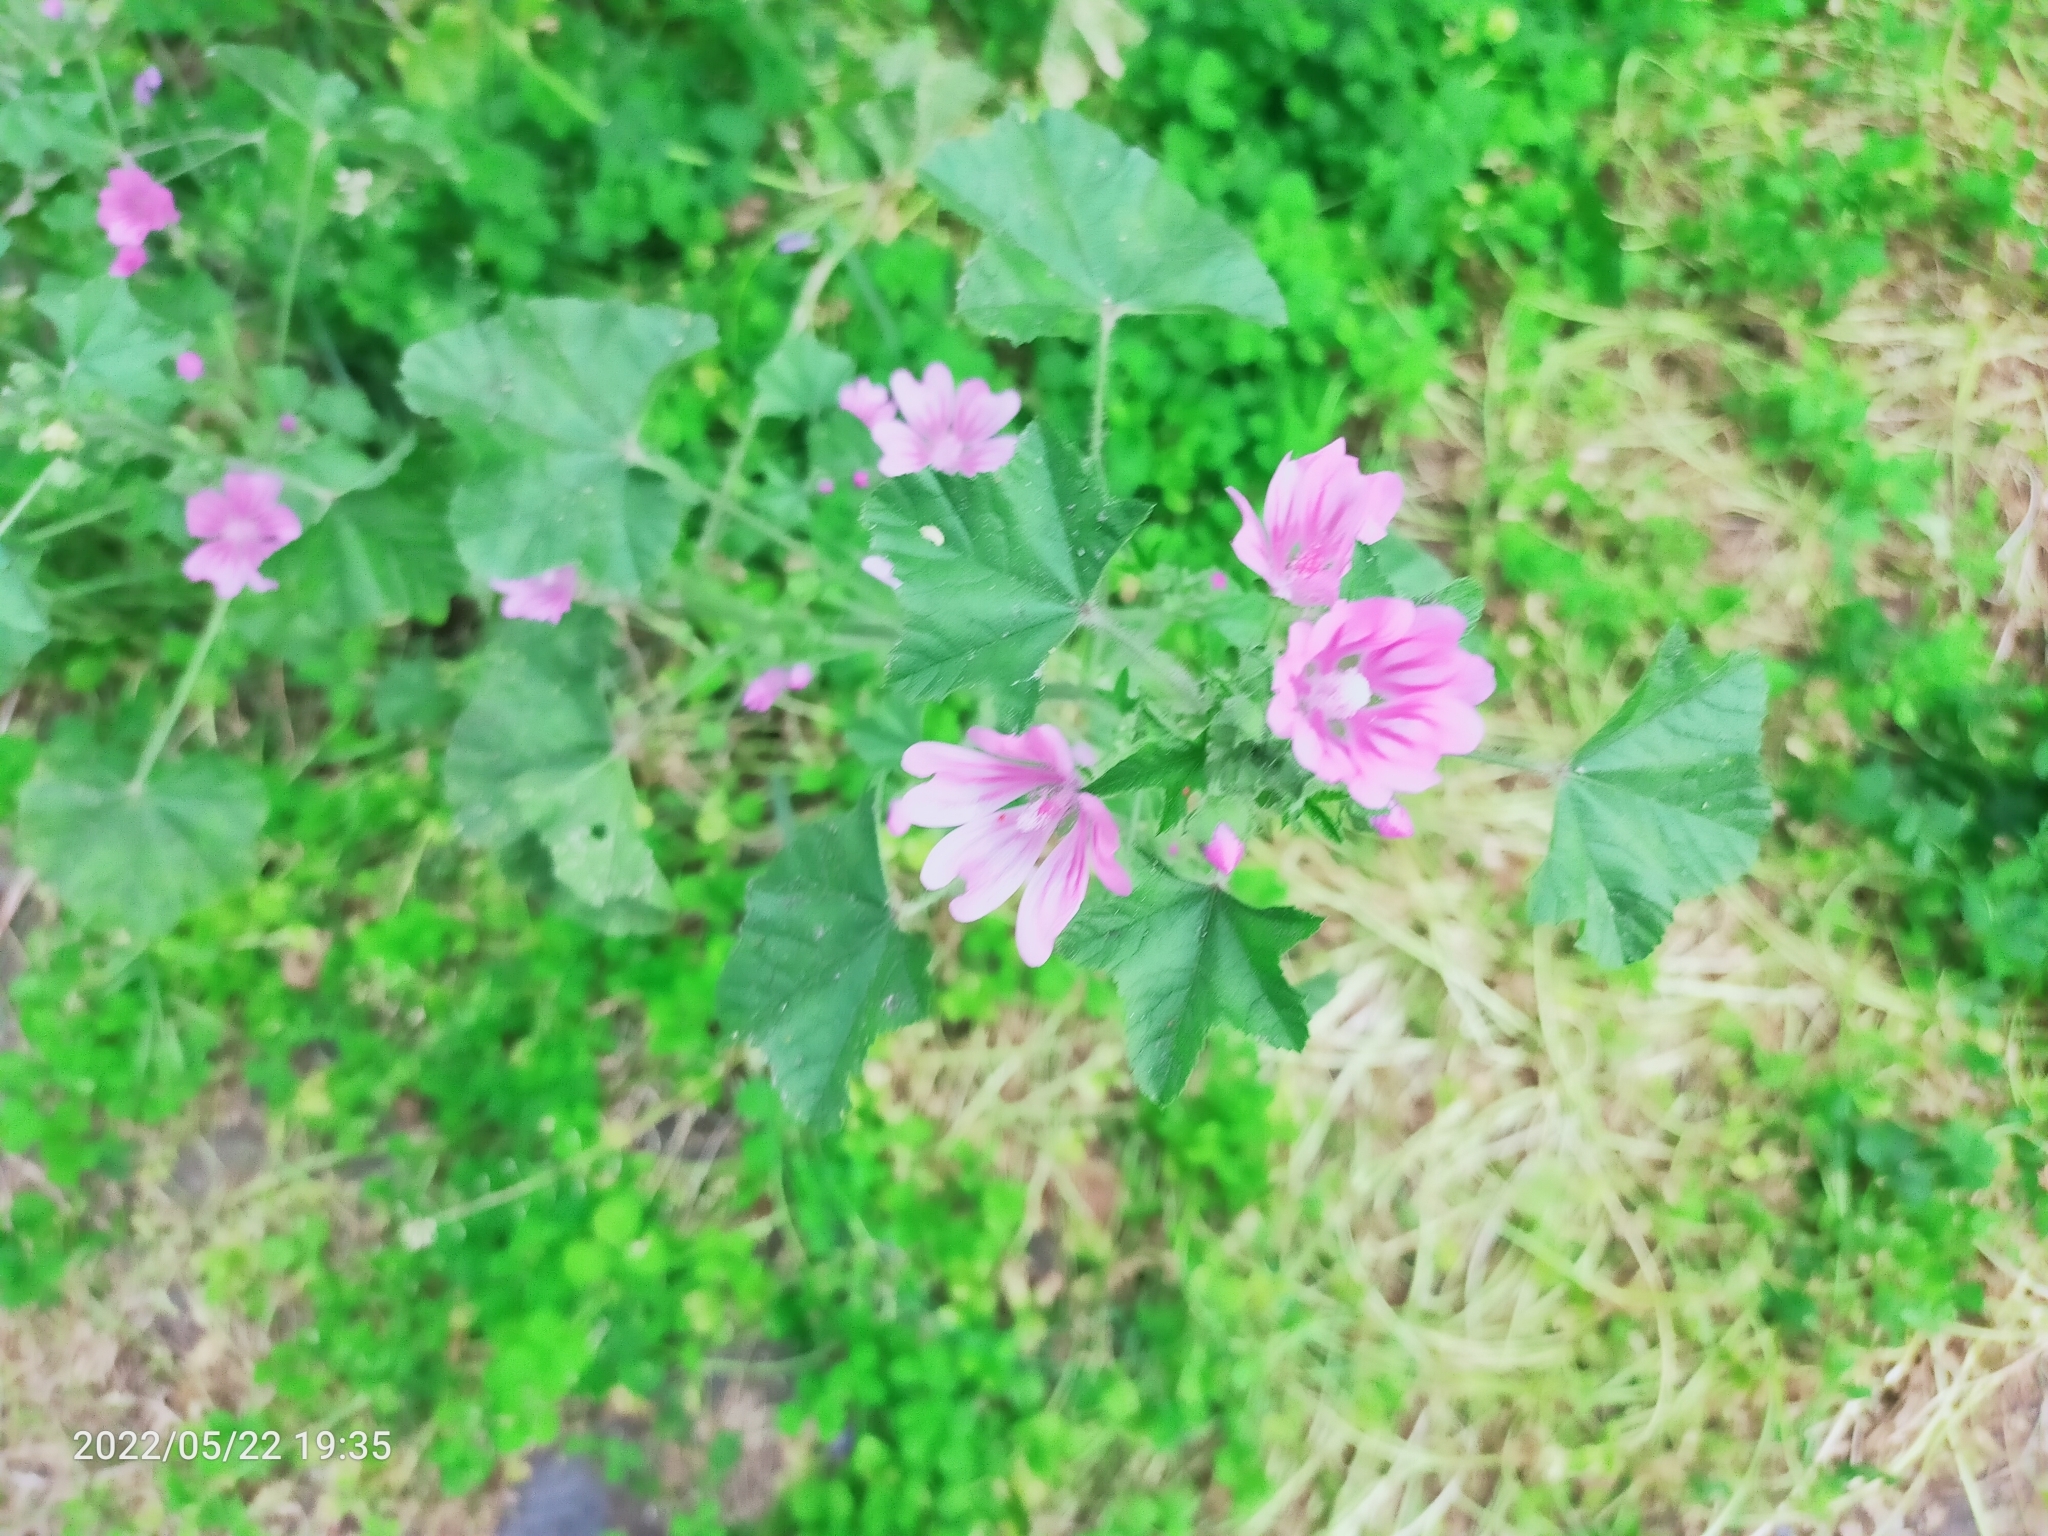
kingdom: Plantae
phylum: Tracheophyta
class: Magnoliopsida
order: Malvales
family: Malvaceae
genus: Malva
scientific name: Malva sylvestris
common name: Common mallow
